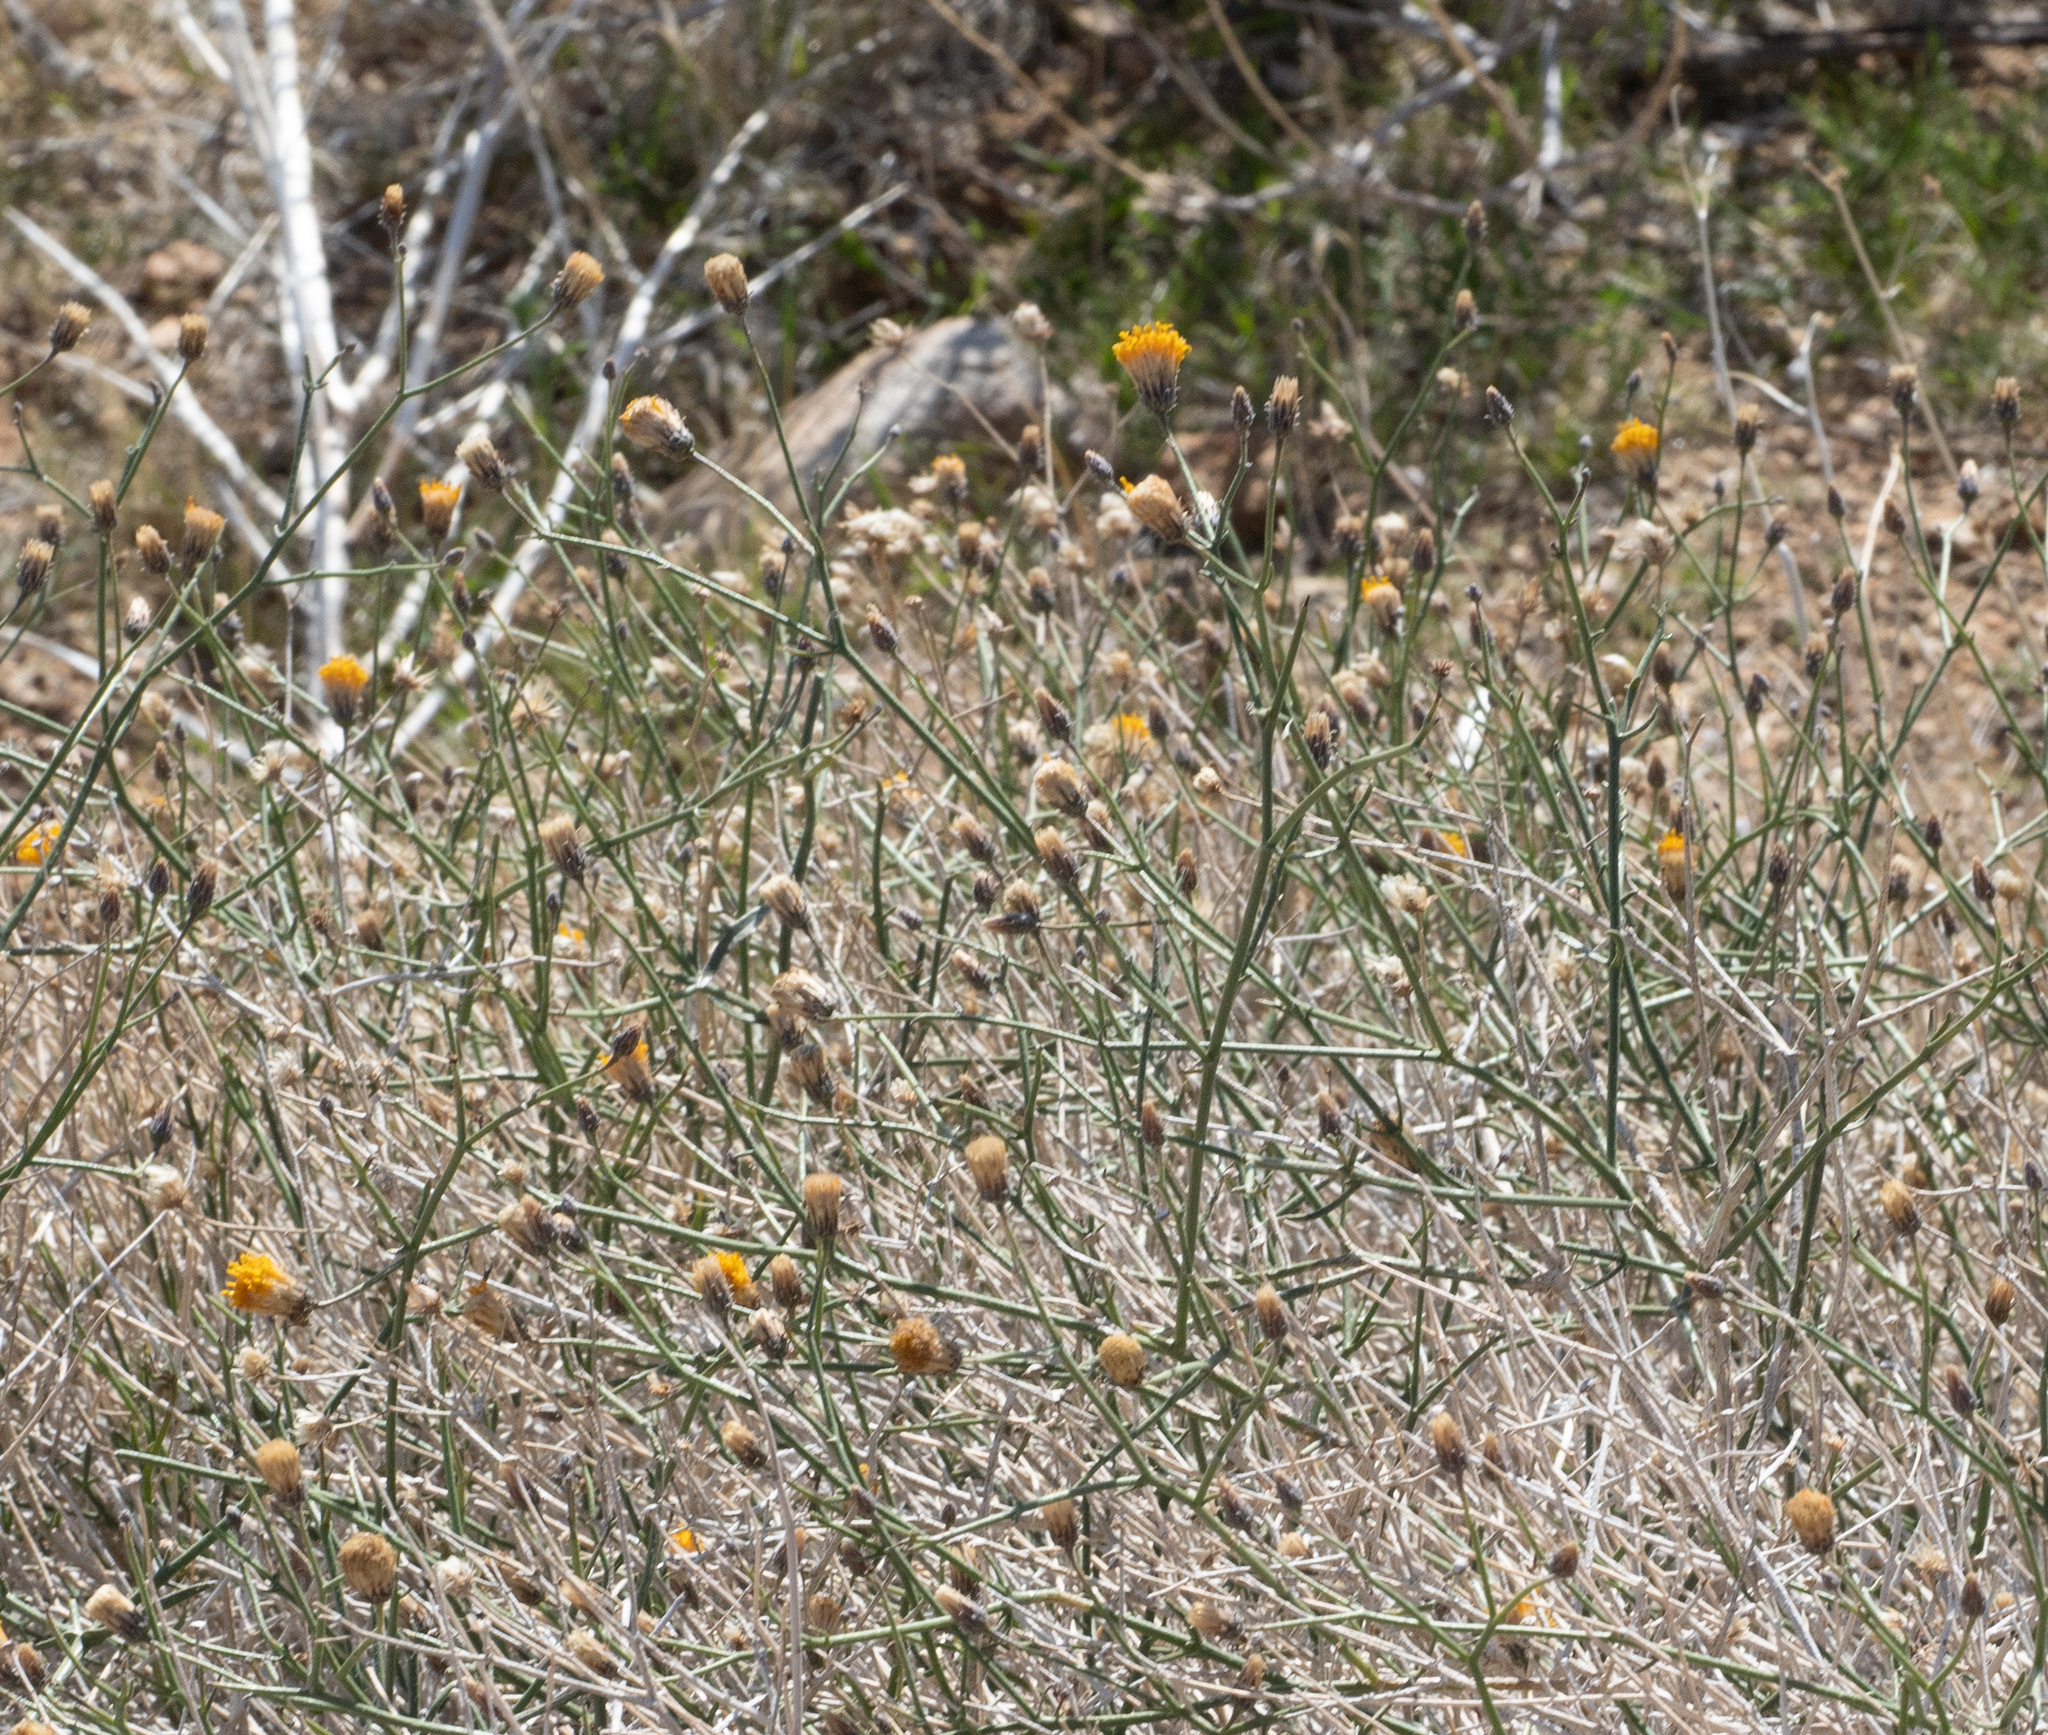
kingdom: Plantae
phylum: Tracheophyta
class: Magnoliopsida
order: Asterales
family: Asteraceae
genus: Bebbia
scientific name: Bebbia juncea
